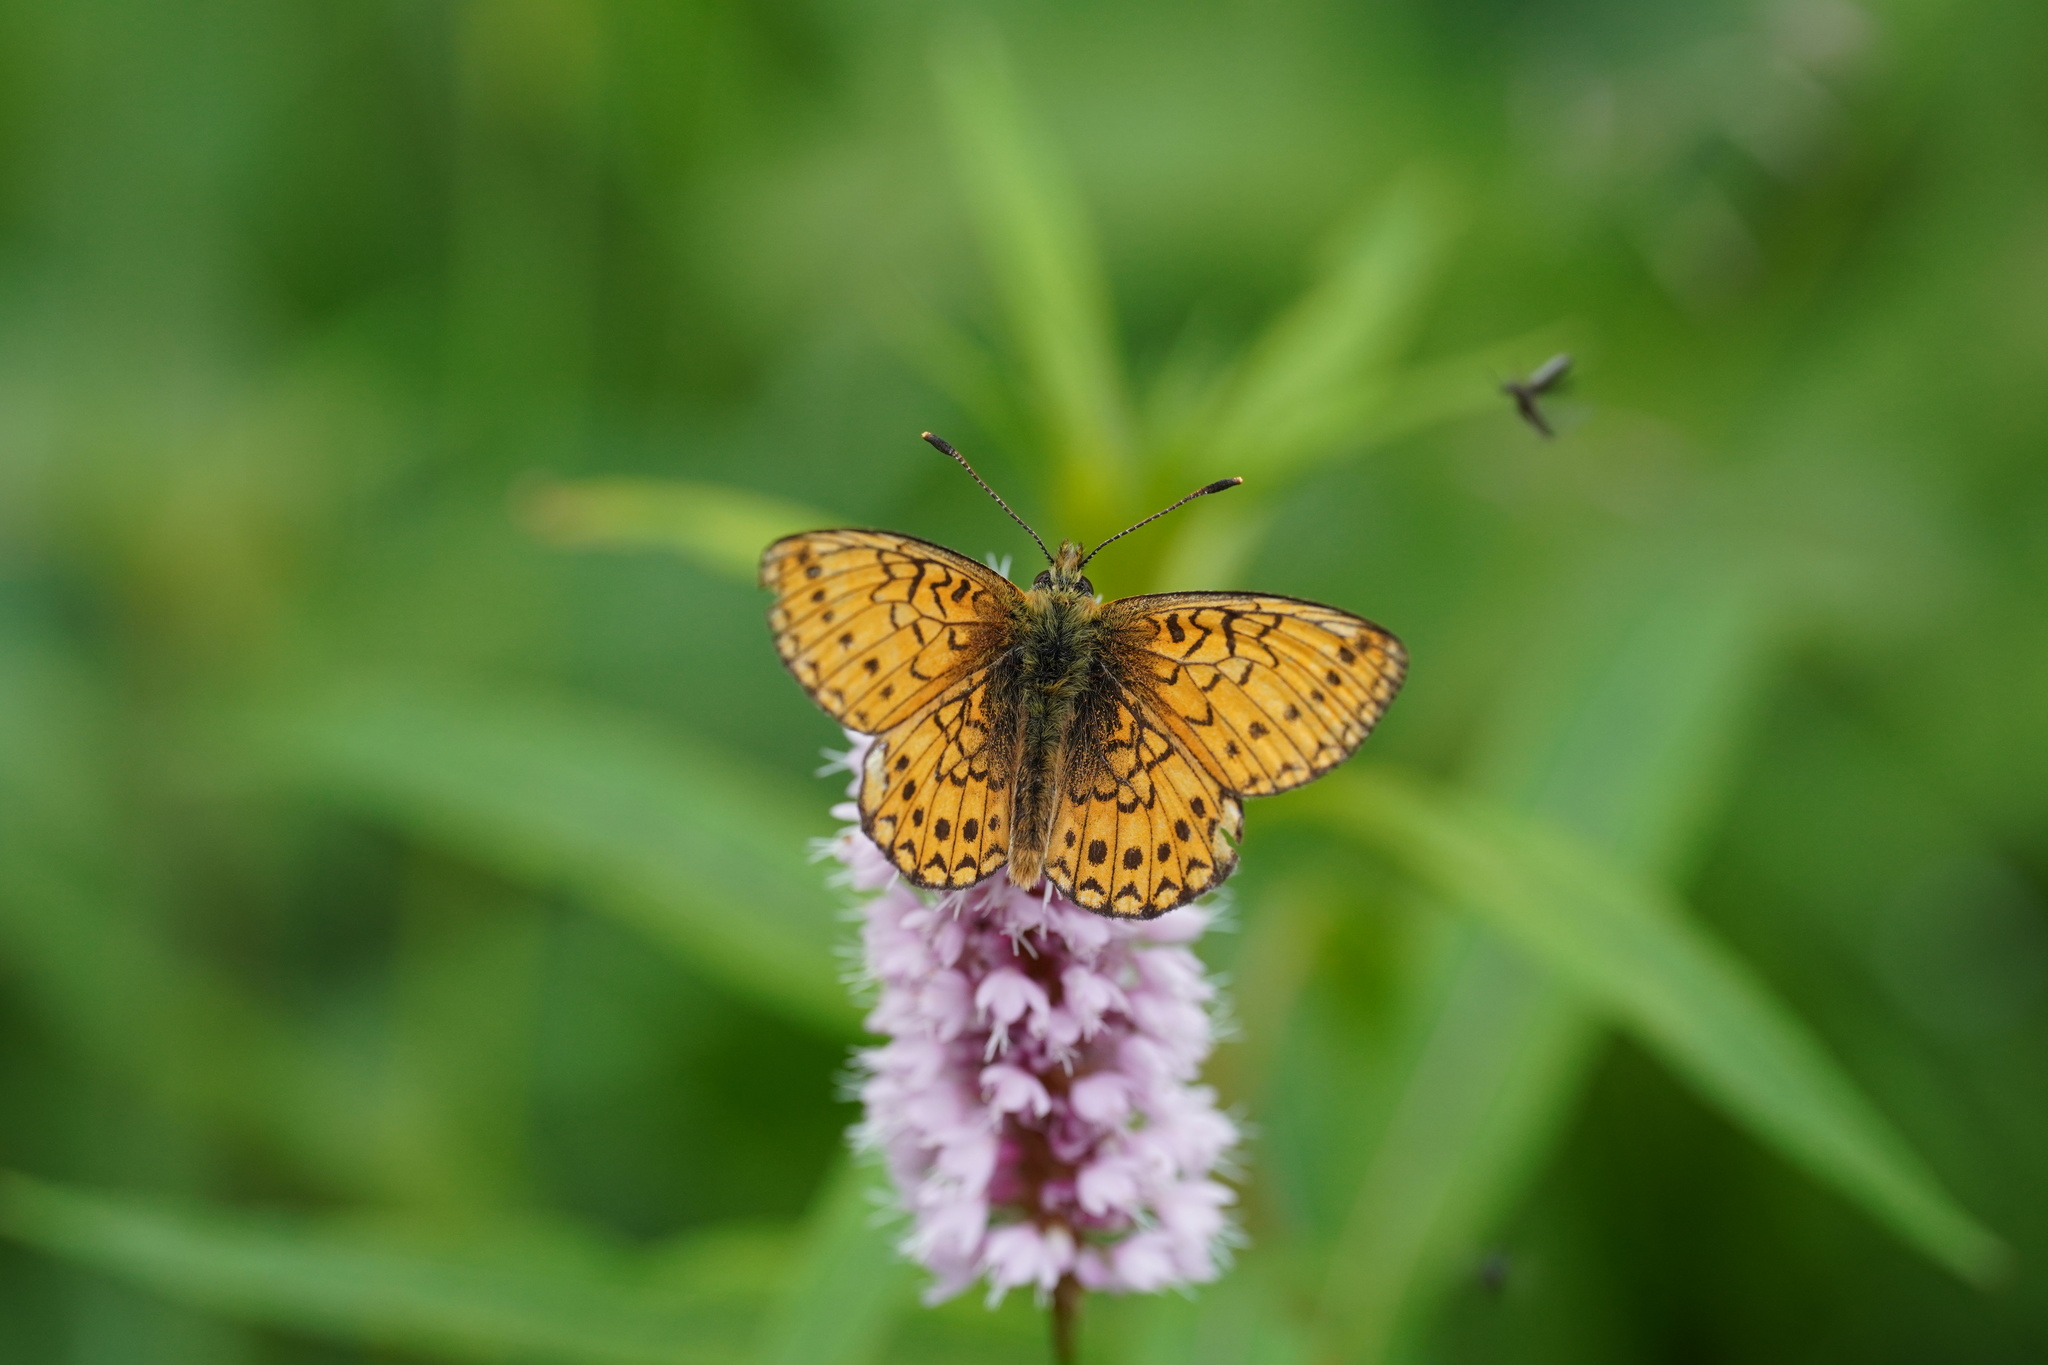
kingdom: Animalia
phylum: Arthropoda
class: Insecta
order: Lepidoptera
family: Nymphalidae
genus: Boloria
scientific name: Boloria eunomia
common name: Bog fritillary
